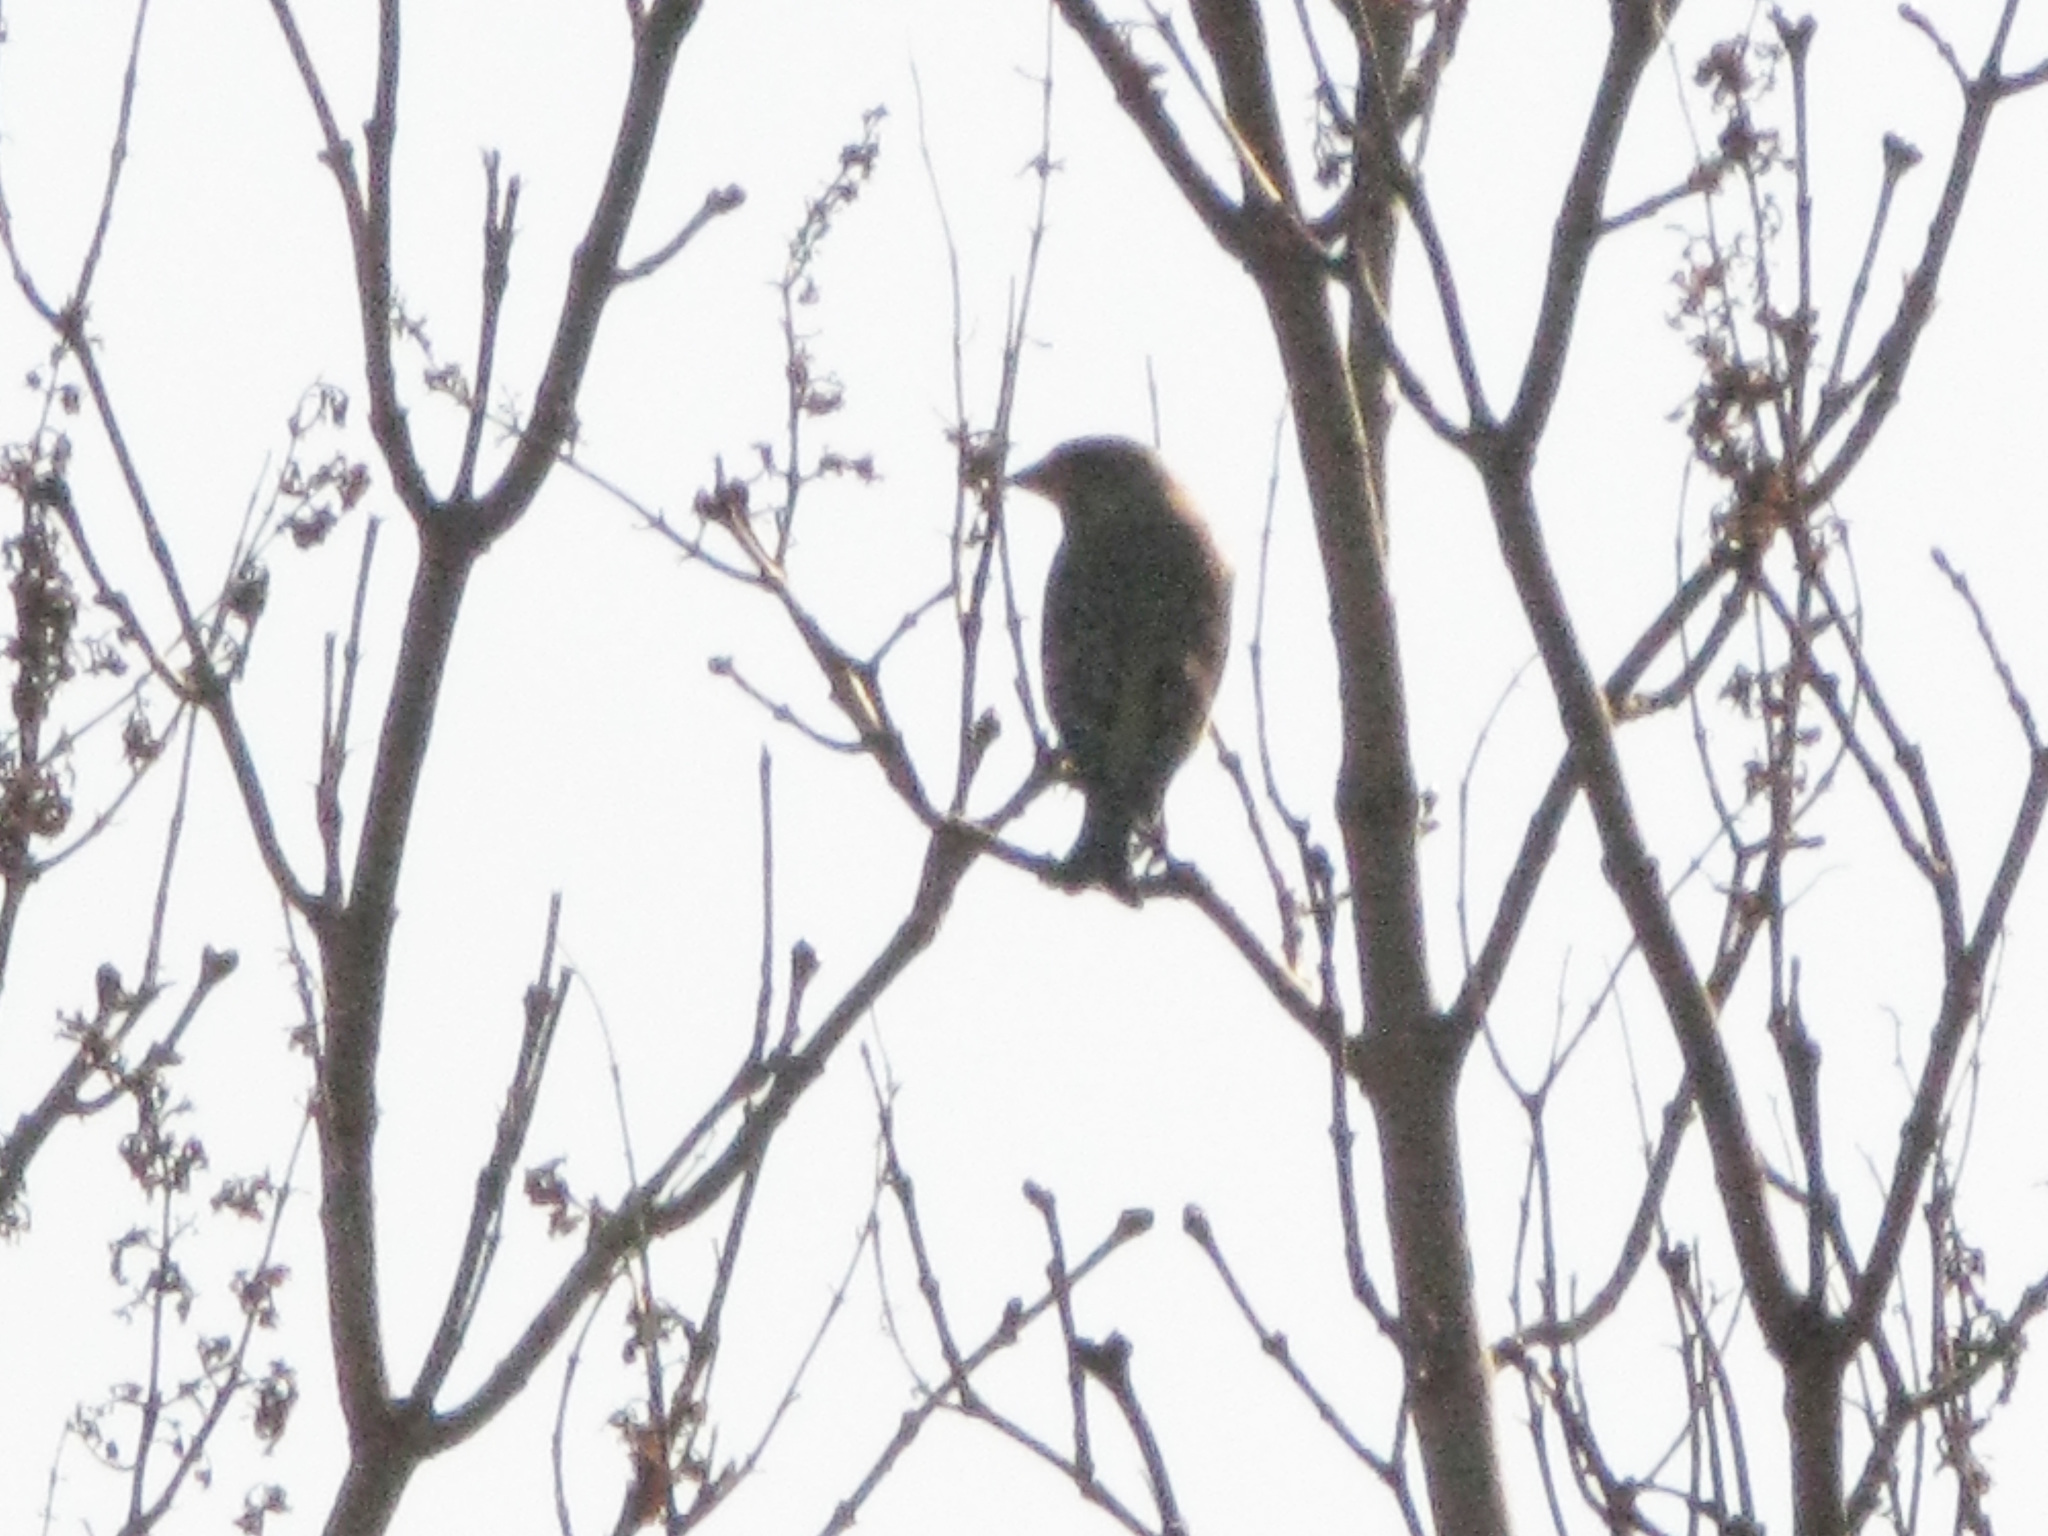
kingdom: Plantae
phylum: Tracheophyta
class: Liliopsida
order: Poales
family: Poaceae
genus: Chloris
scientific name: Chloris chloris
